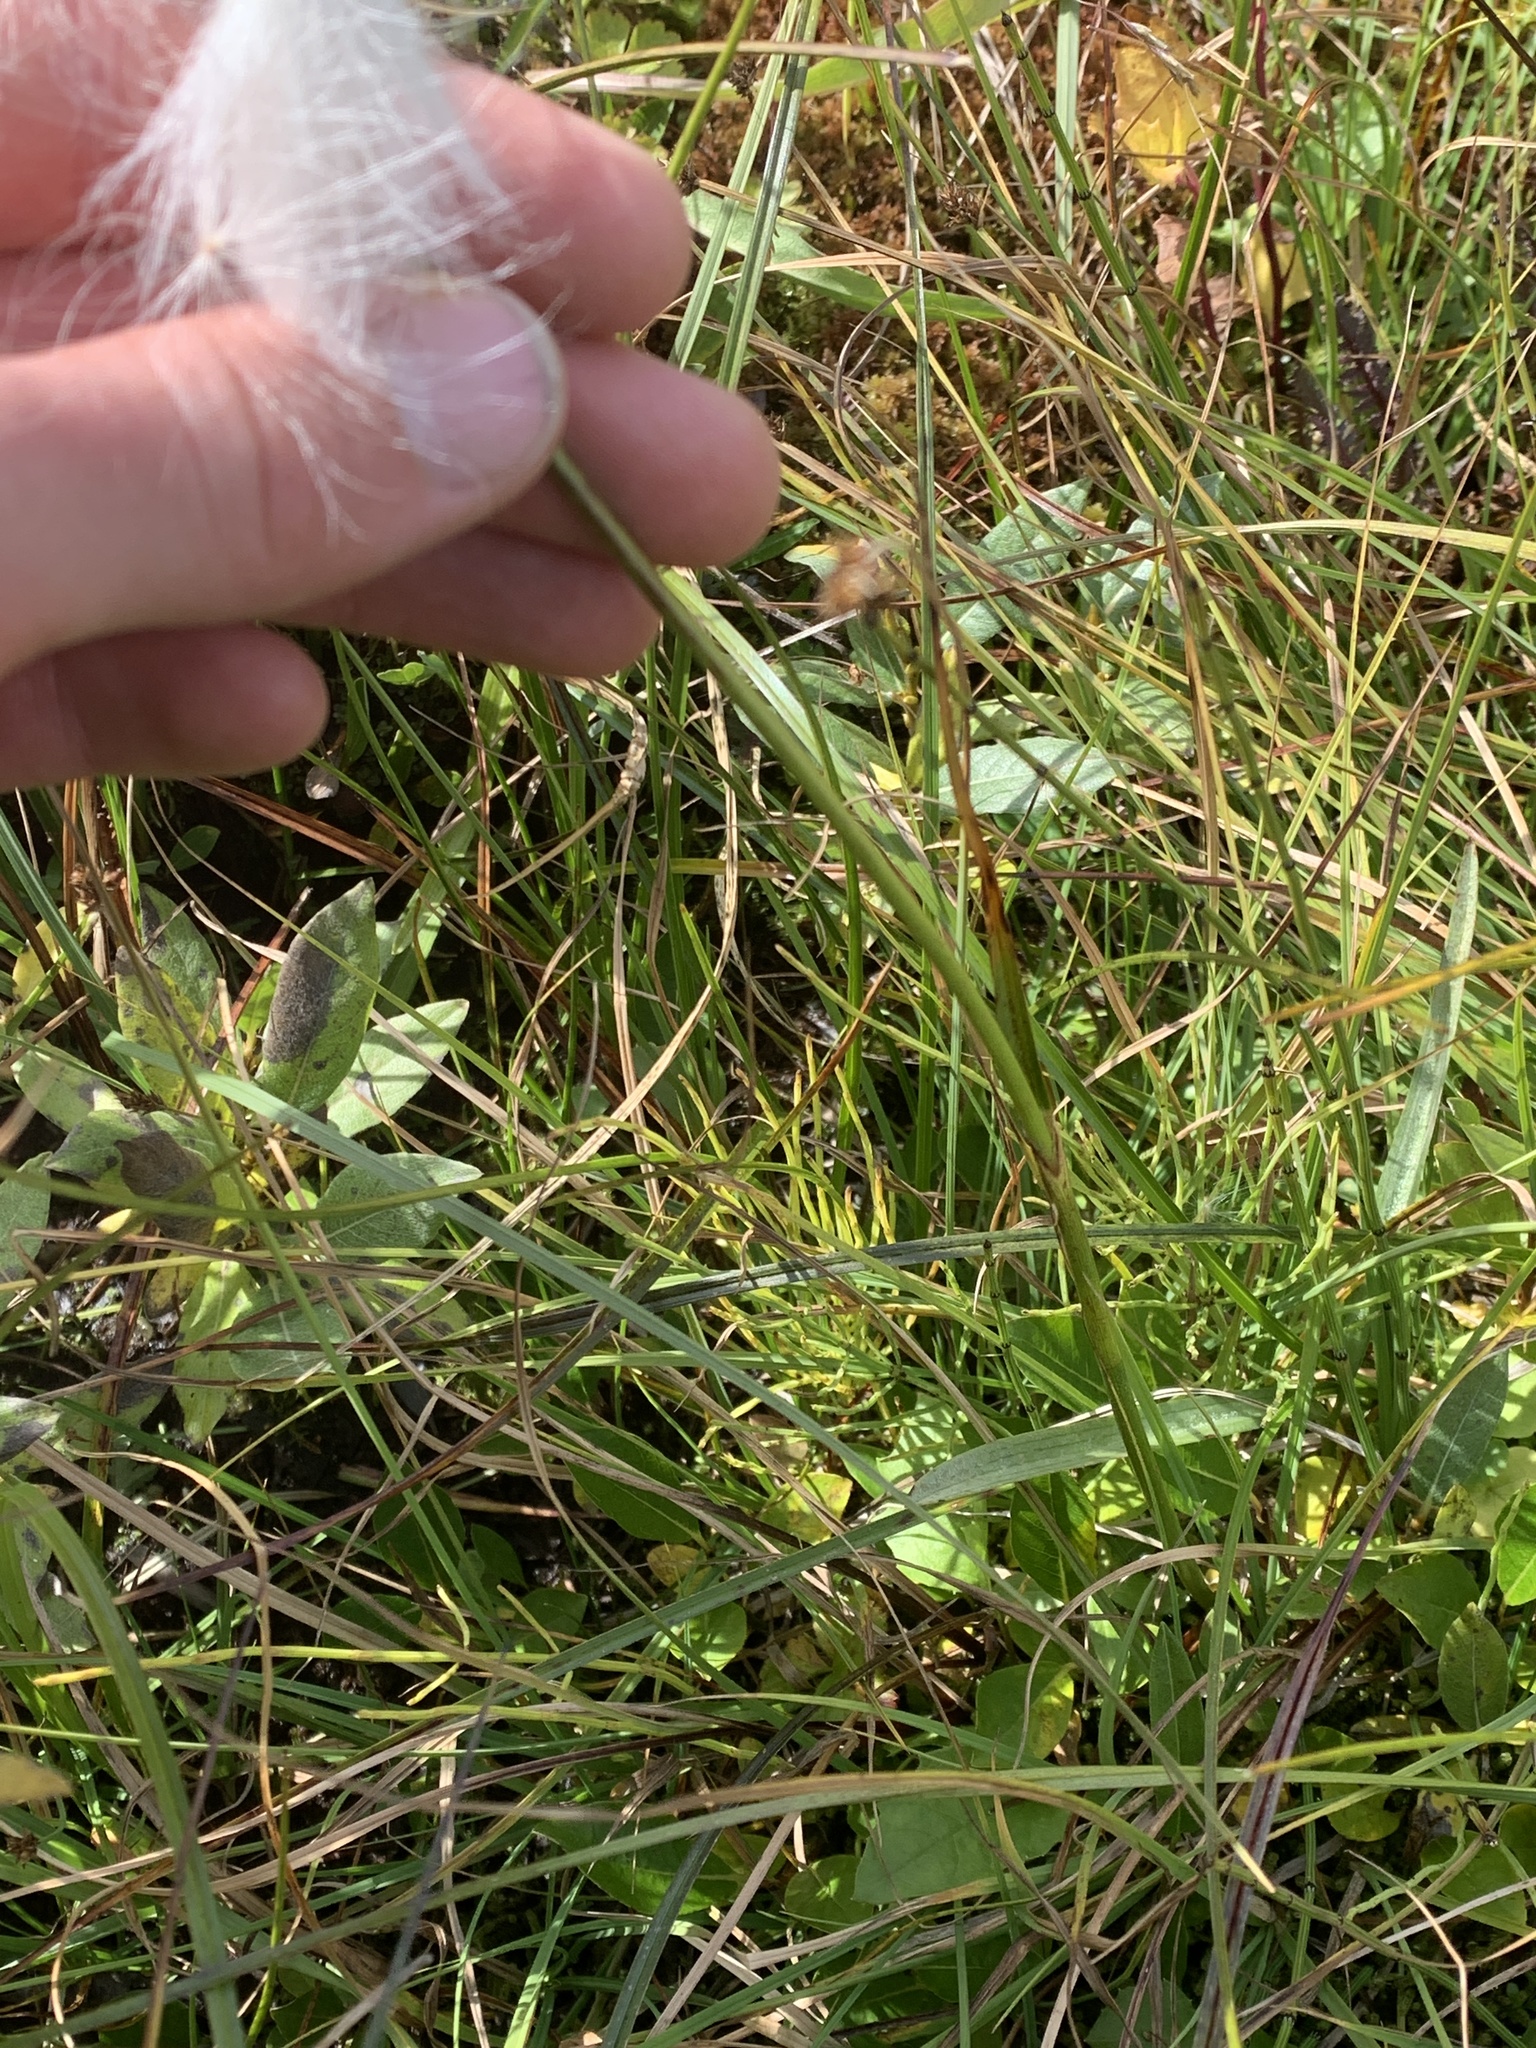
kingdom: Plantae
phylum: Tracheophyta
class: Liliopsida
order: Poales
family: Cyperaceae
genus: Eriophorum
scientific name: Eriophorum angustifolium
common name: Common cottongrass
